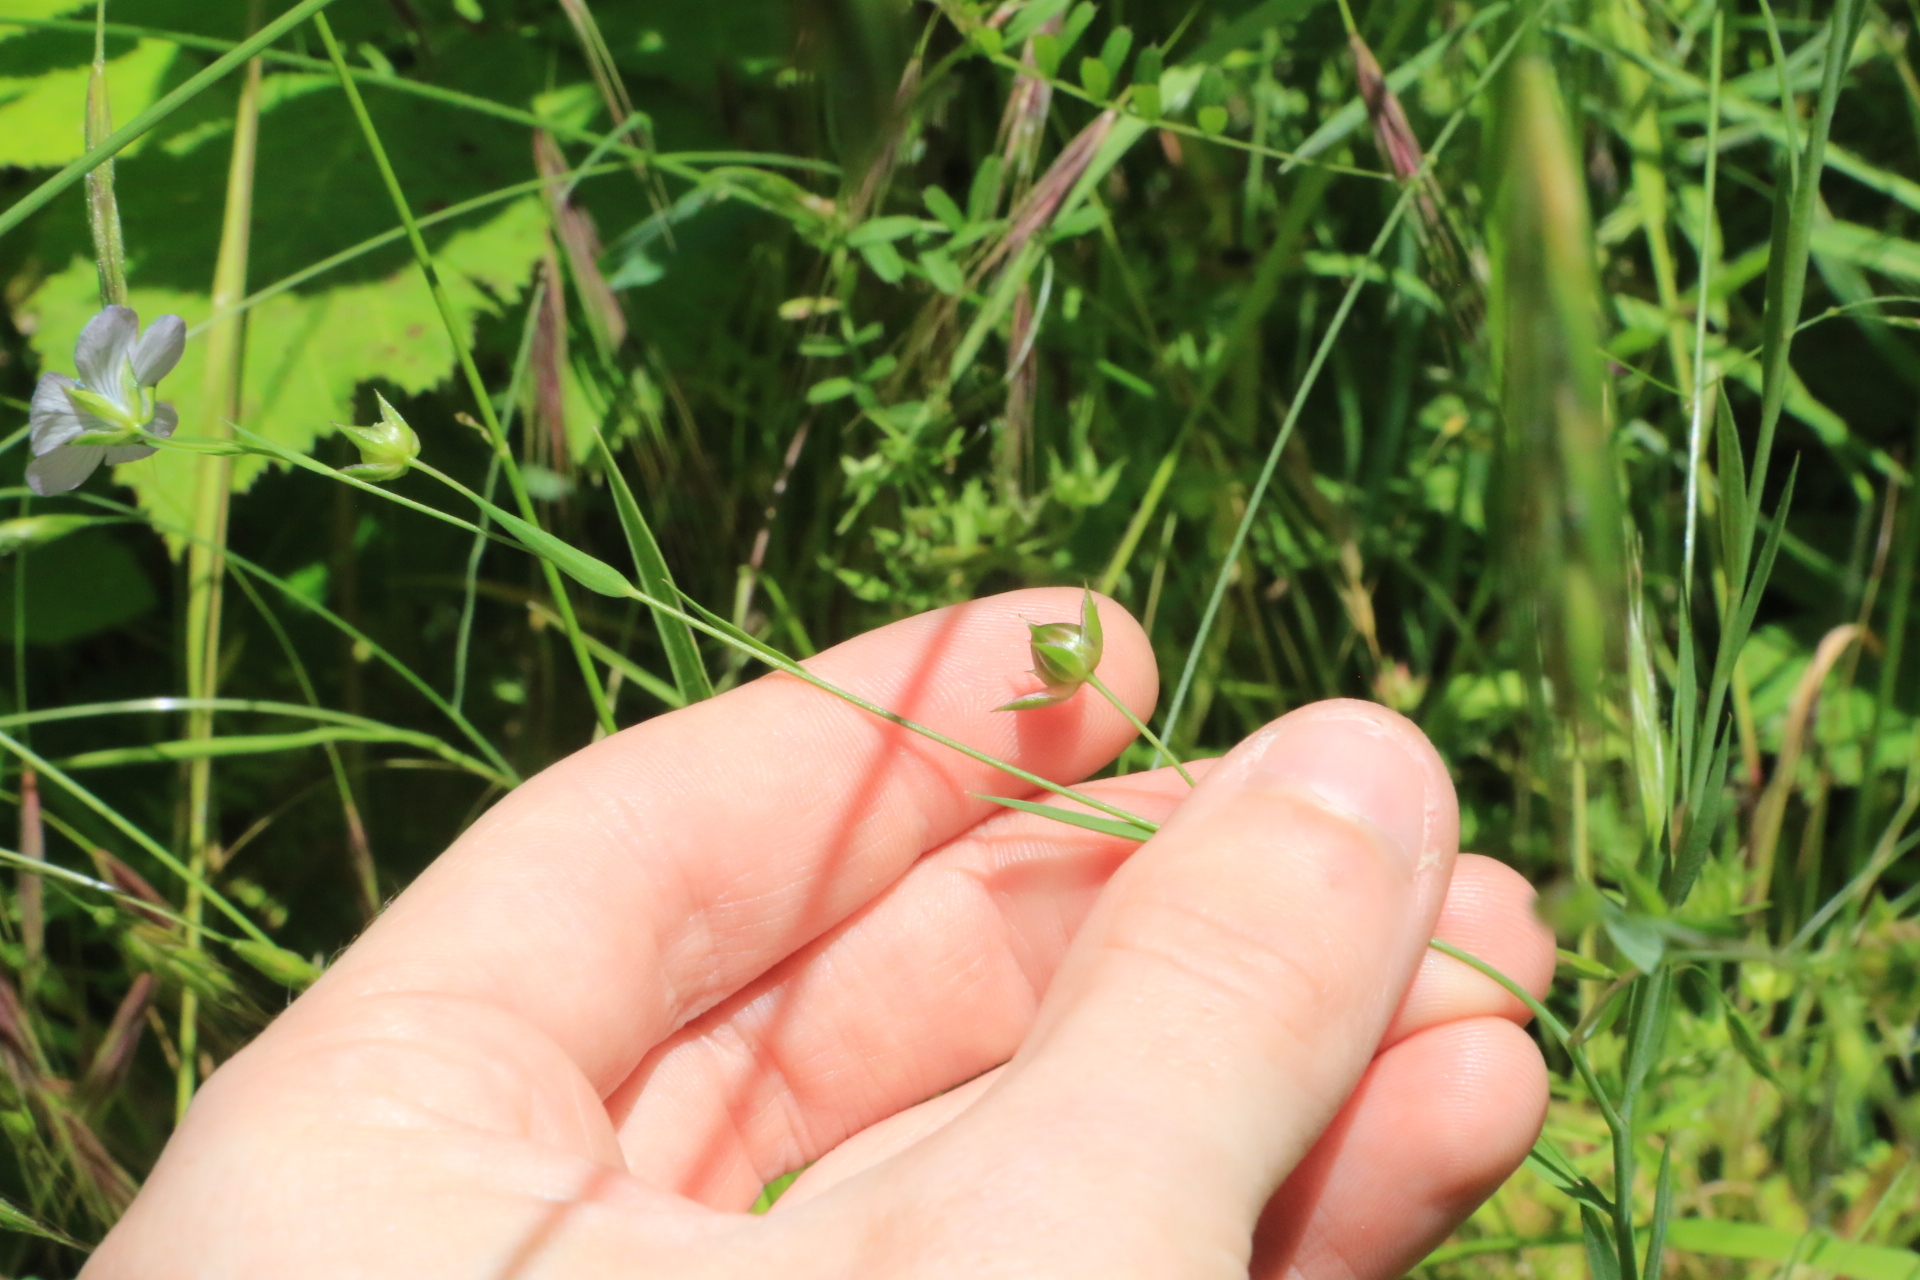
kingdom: Plantae
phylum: Tracheophyta
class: Magnoliopsida
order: Malpighiales
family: Linaceae
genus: Linum
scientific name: Linum bienne
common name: Pale flax
